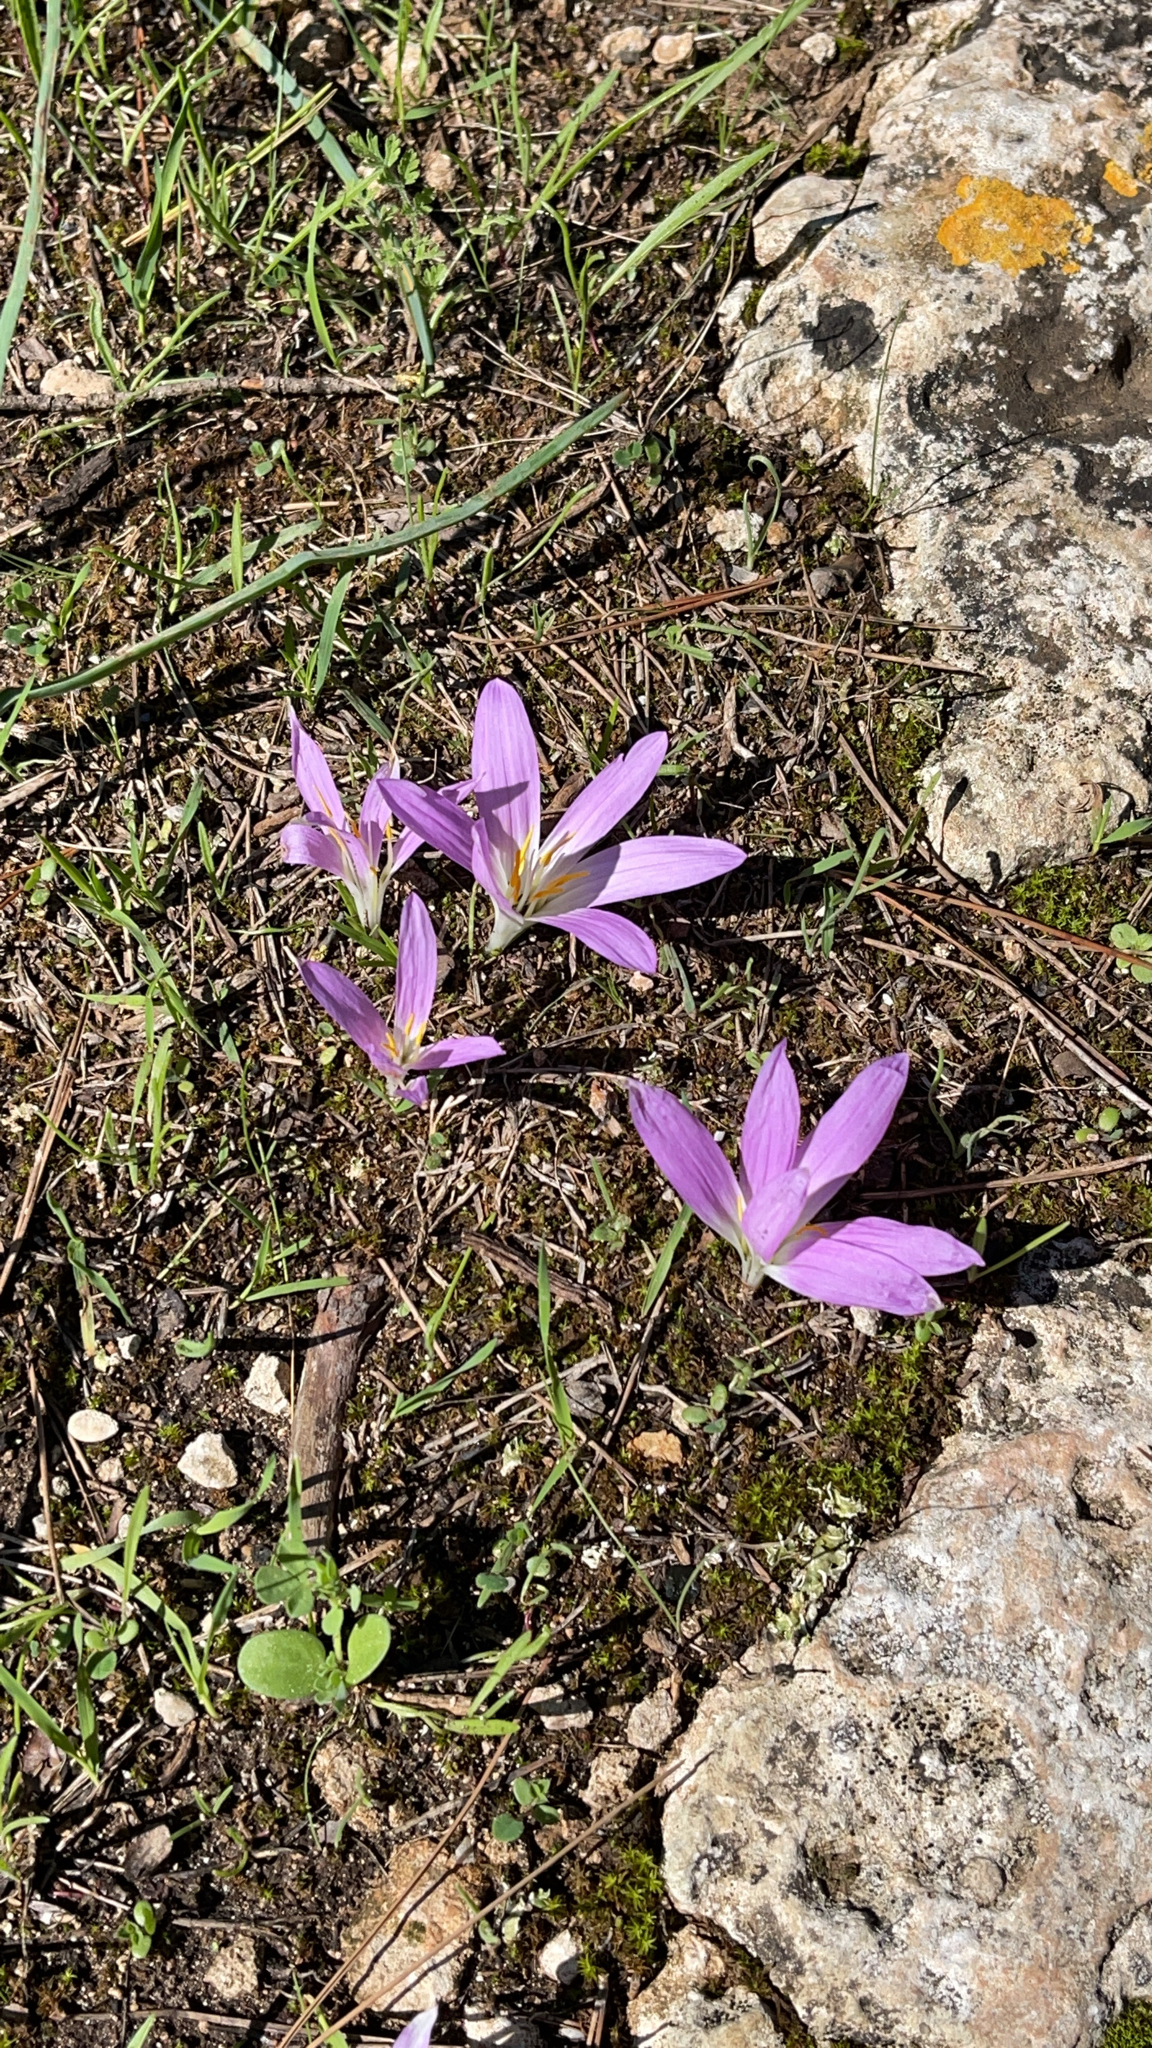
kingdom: Plantae
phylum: Tracheophyta
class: Liliopsida
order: Liliales
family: Colchicaceae
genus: Colchicum
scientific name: Colchicum filifolium
